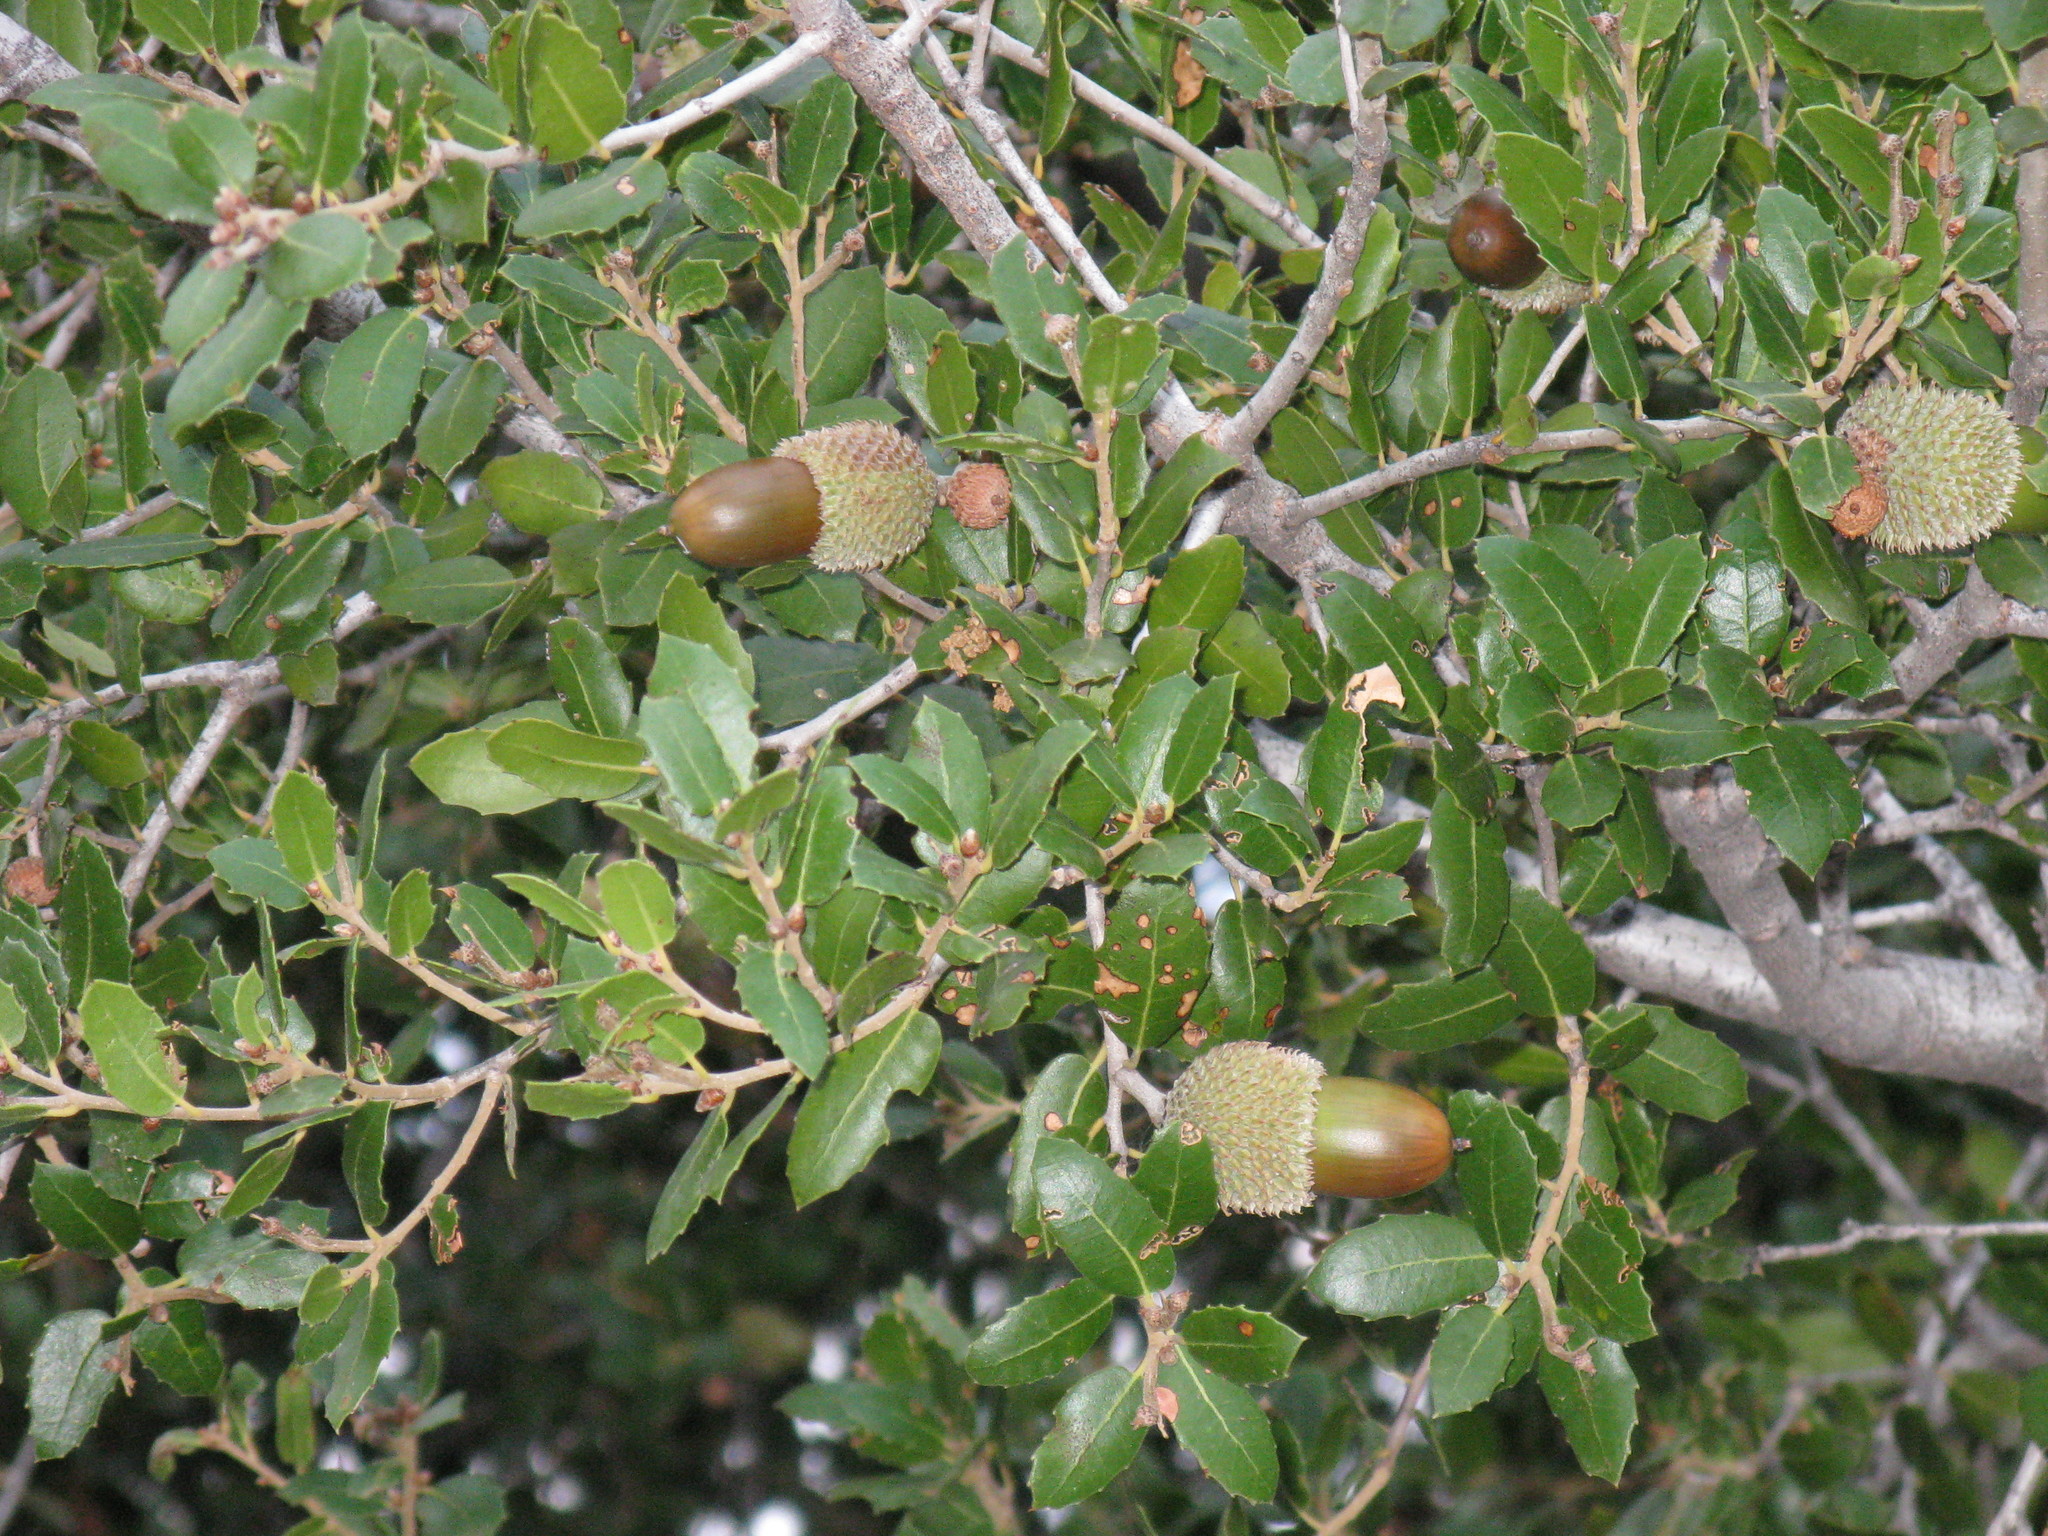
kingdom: Plantae
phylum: Tracheophyta
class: Magnoliopsida
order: Fagales
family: Fagaceae
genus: Quercus
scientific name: Quercus coccifera
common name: Kermes oak
